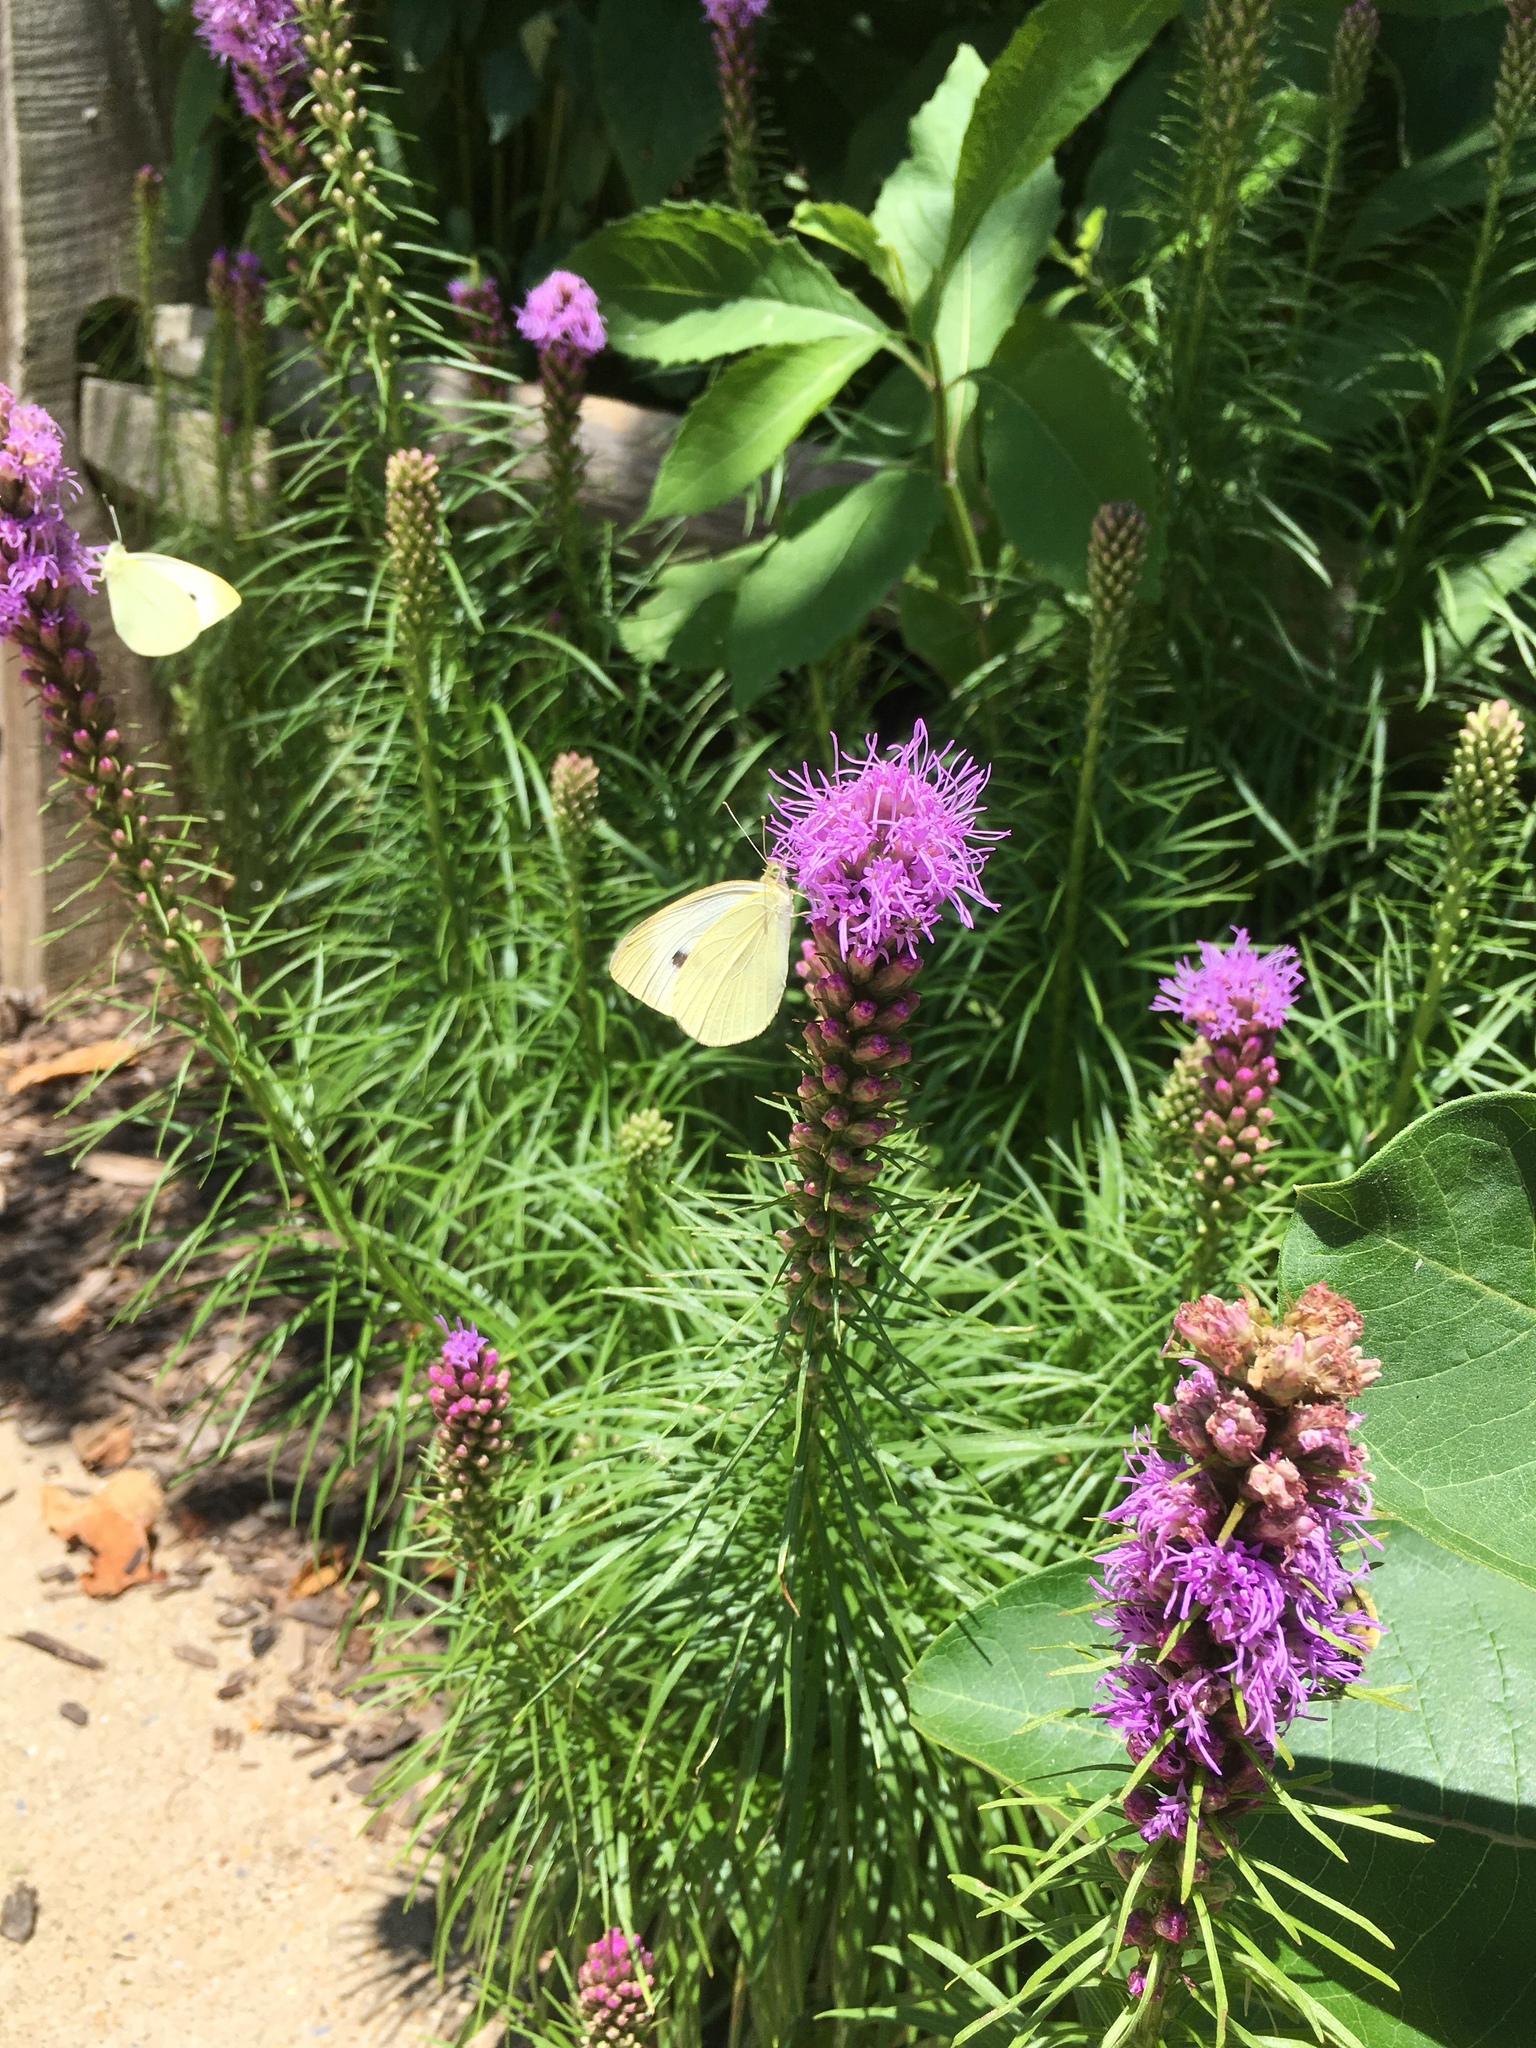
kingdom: Animalia
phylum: Arthropoda
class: Insecta
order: Lepidoptera
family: Pieridae
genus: Pieris
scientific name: Pieris rapae
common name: Small white
